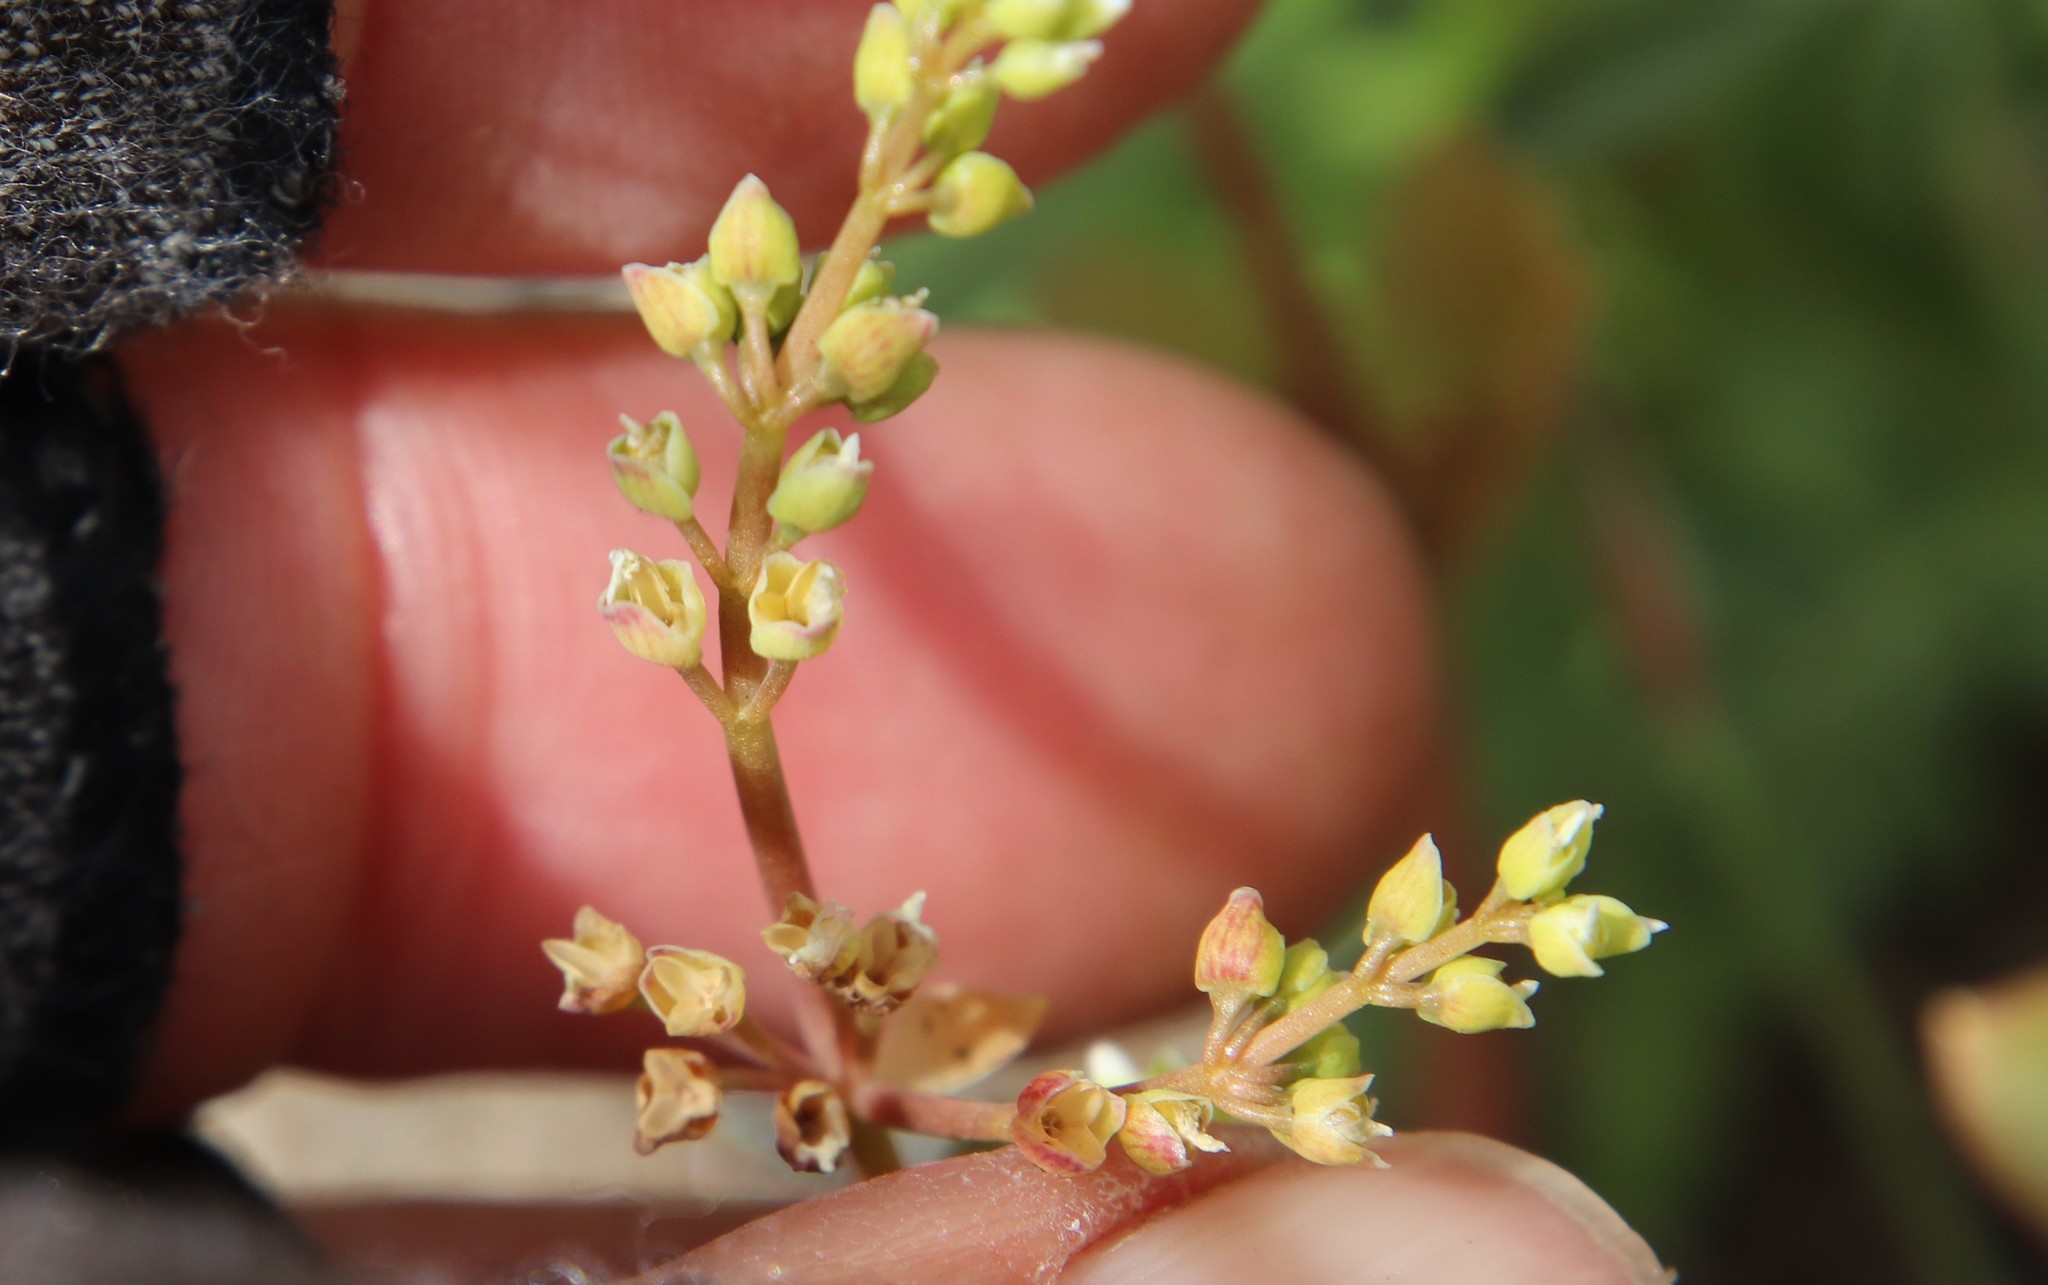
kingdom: Plantae
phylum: Tracheophyta
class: Magnoliopsida
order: Caryophyllales
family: Montiaceae
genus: Claytonia
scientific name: Claytonia parviflora
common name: Indian-lettuce
